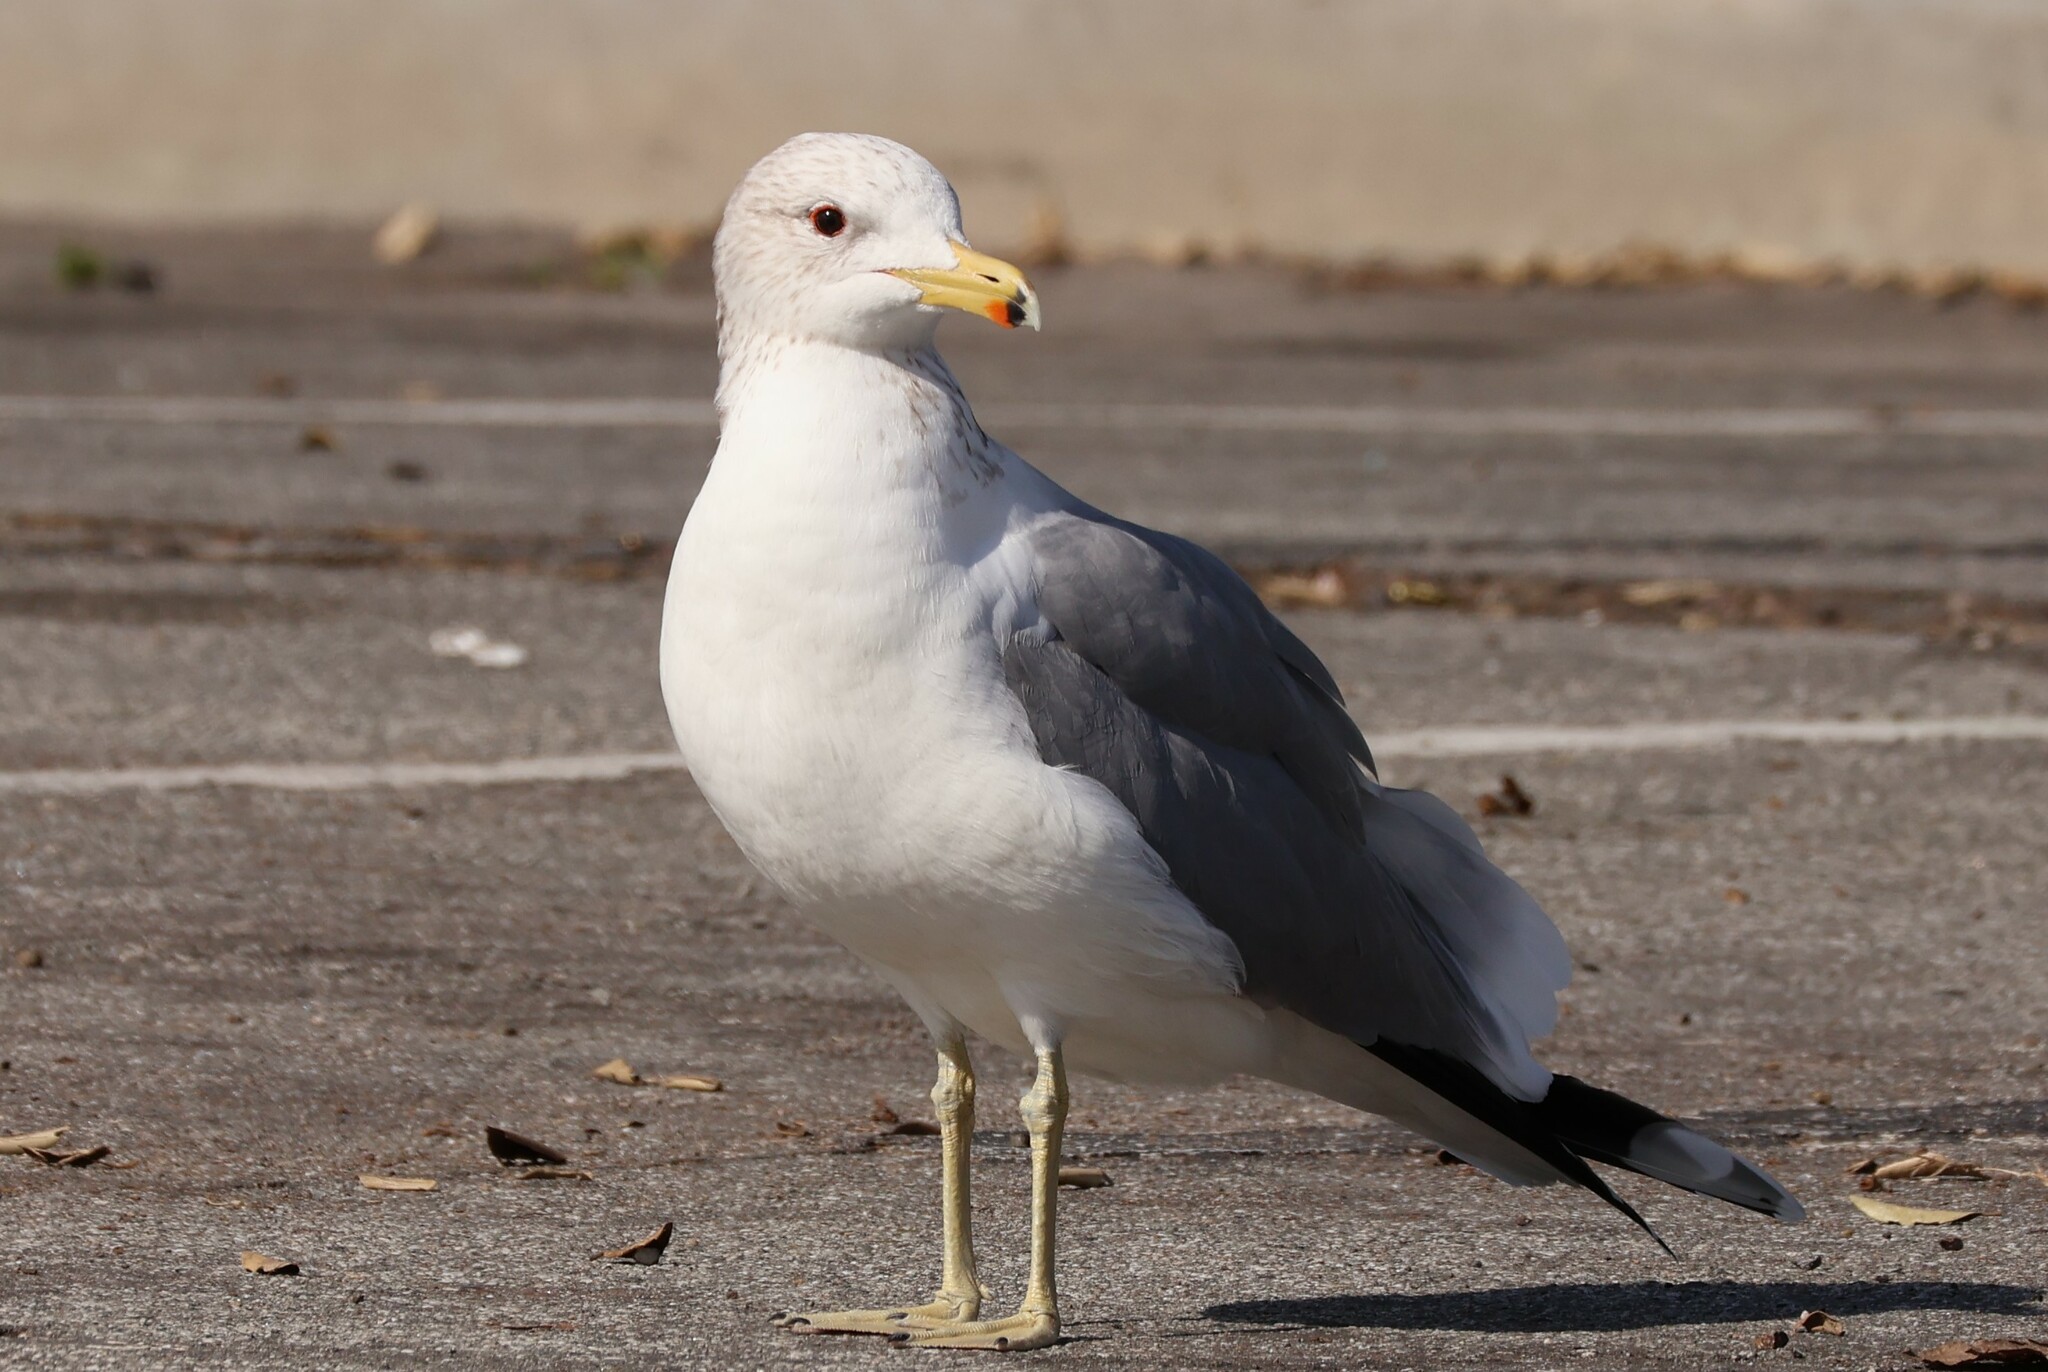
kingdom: Animalia
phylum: Chordata
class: Aves
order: Charadriiformes
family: Laridae
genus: Larus
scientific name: Larus californicus
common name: California gull
